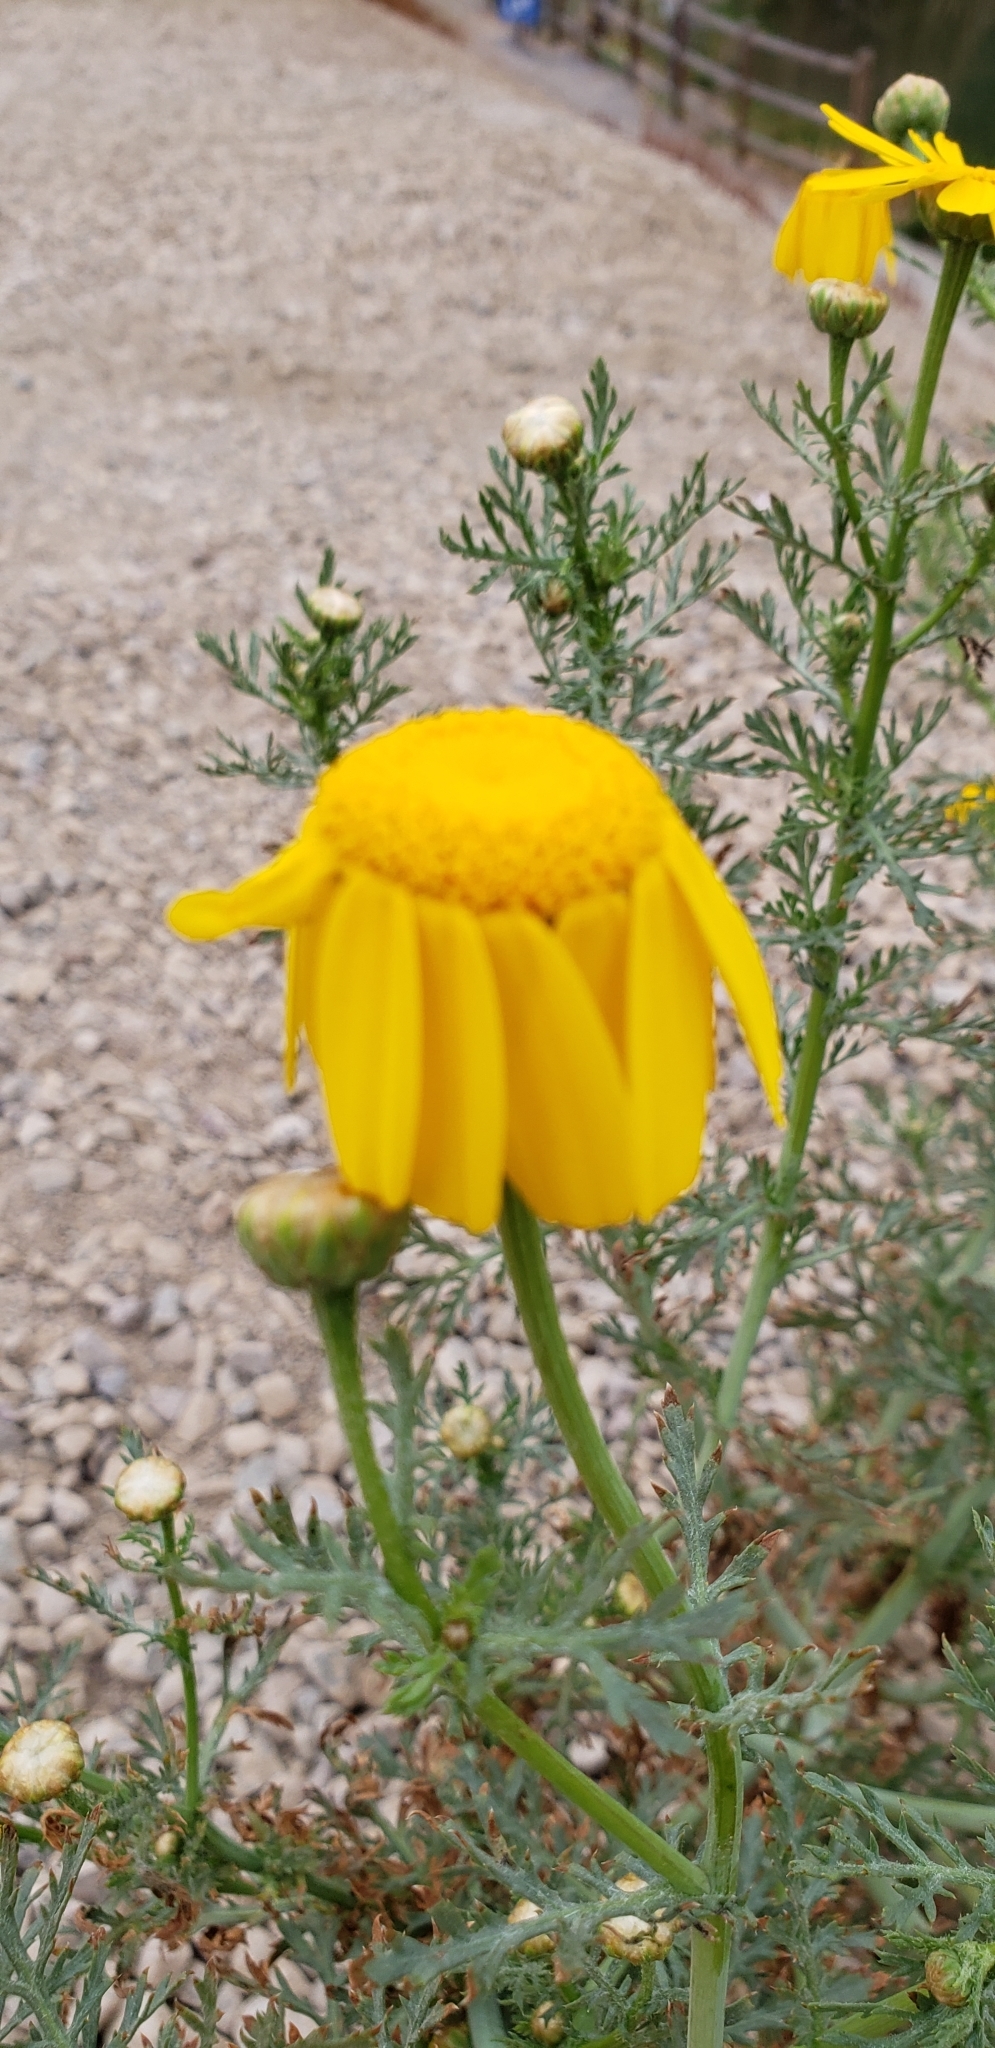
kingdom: Plantae
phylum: Tracheophyta
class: Magnoliopsida
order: Asterales
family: Asteraceae
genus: Glebionis
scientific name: Glebionis coronaria
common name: Crowndaisy
